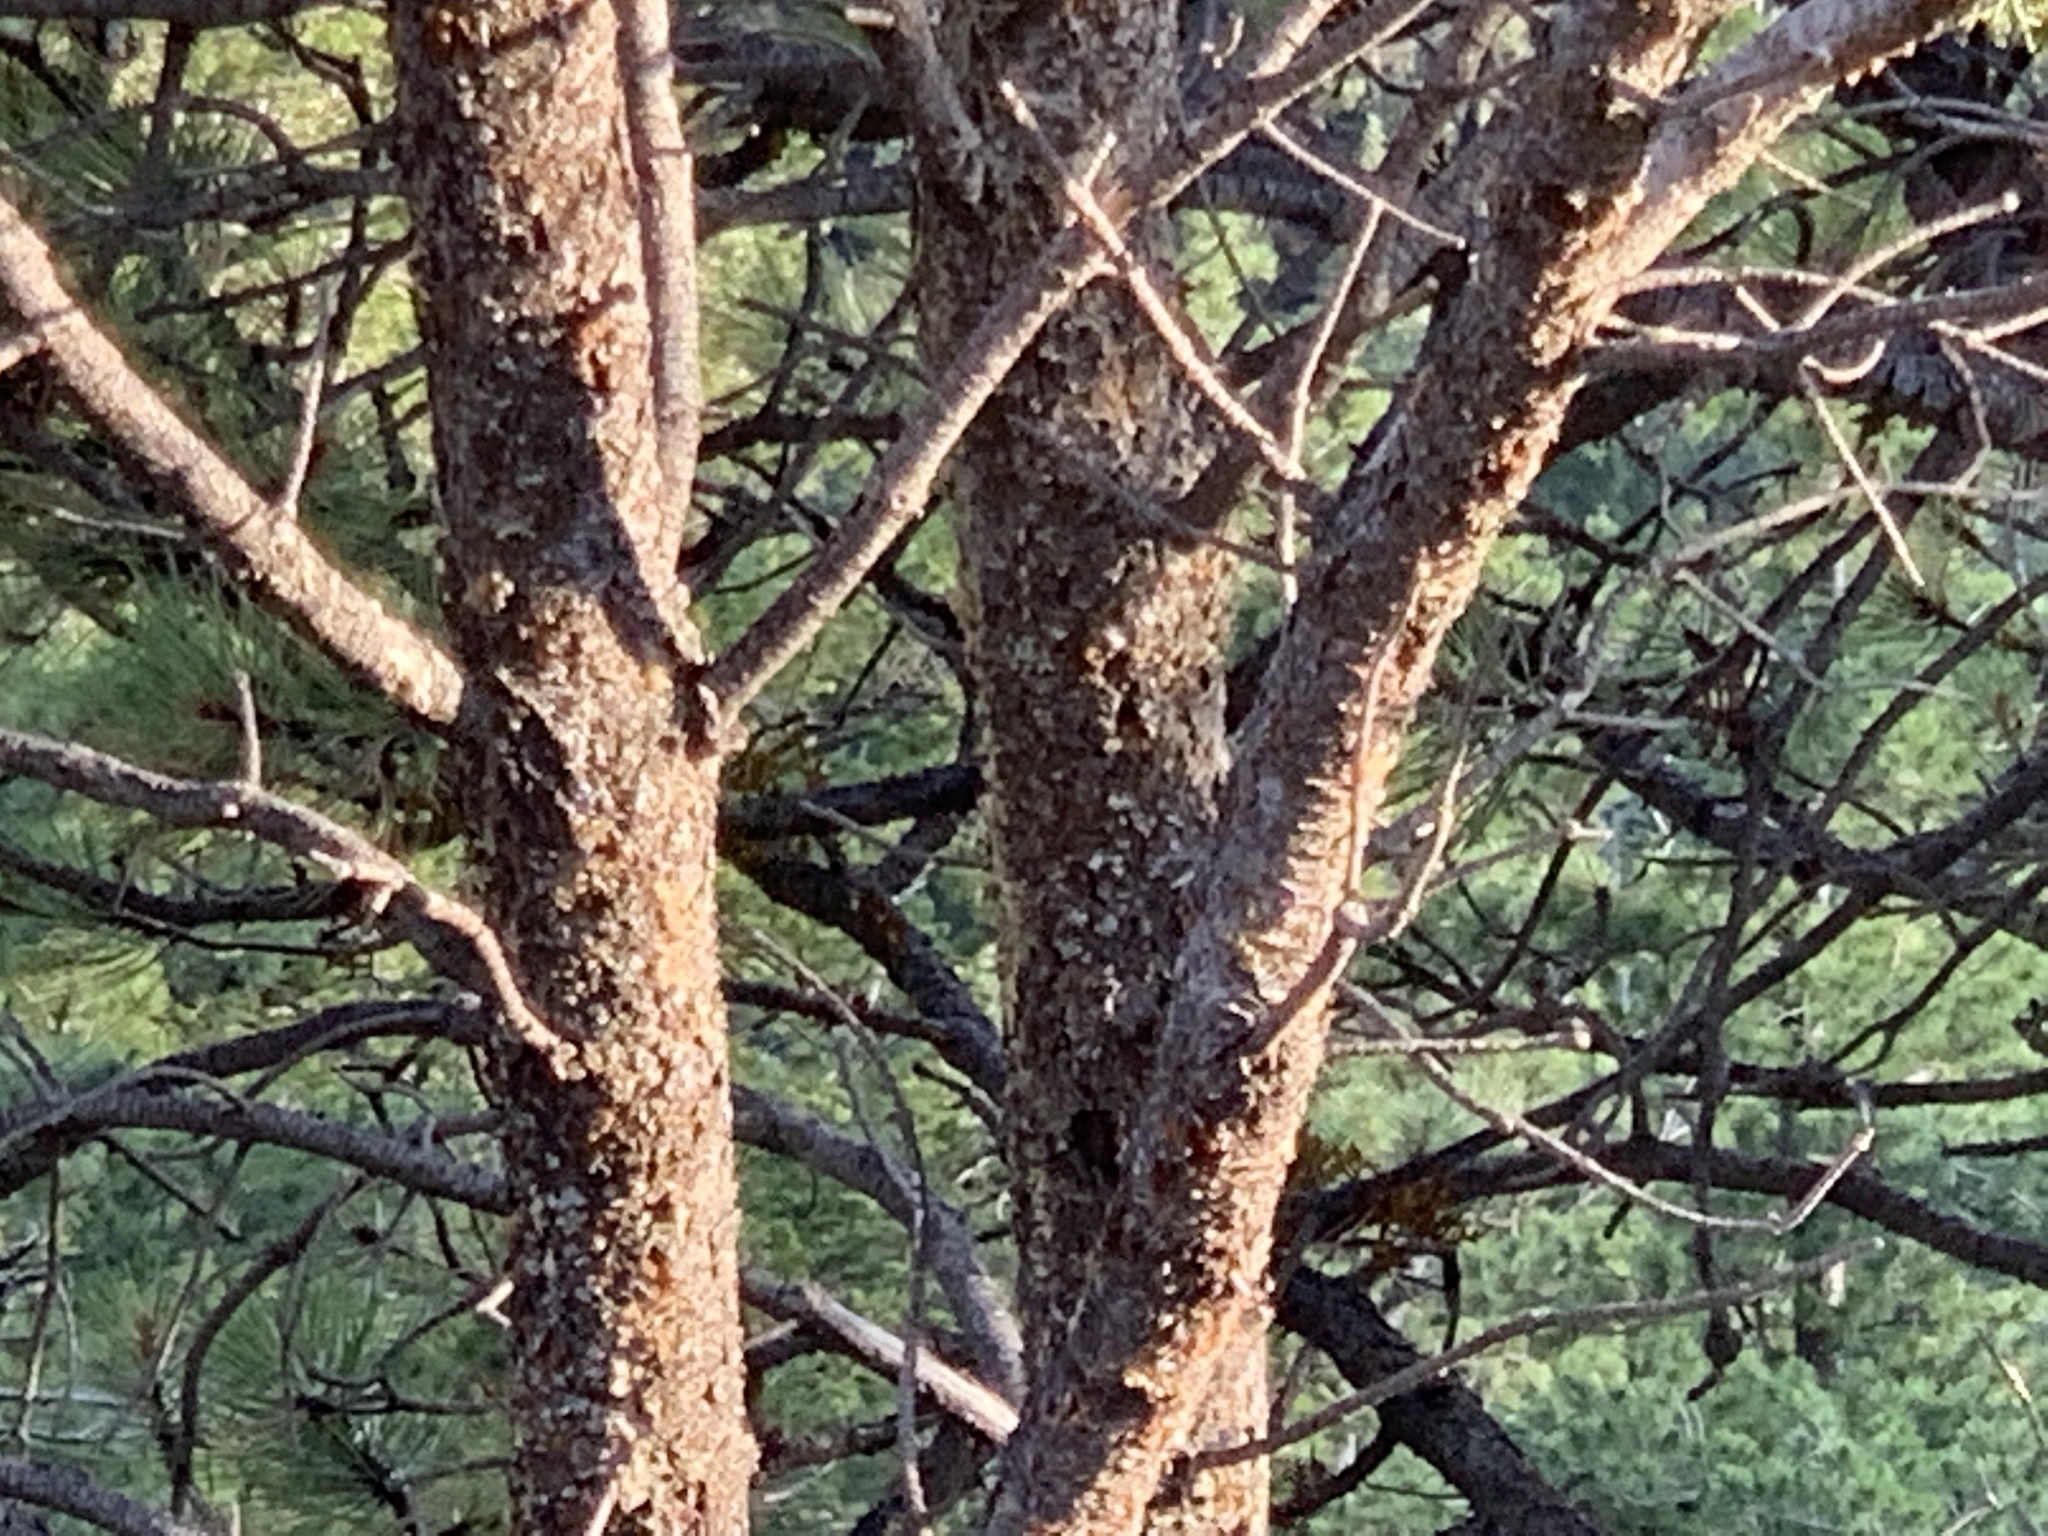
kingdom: Plantae
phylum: Tracheophyta
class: Pinopsida
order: Pinales
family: Pinaceae
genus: Pinus
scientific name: Pinus edulis
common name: Colorado pinyon
